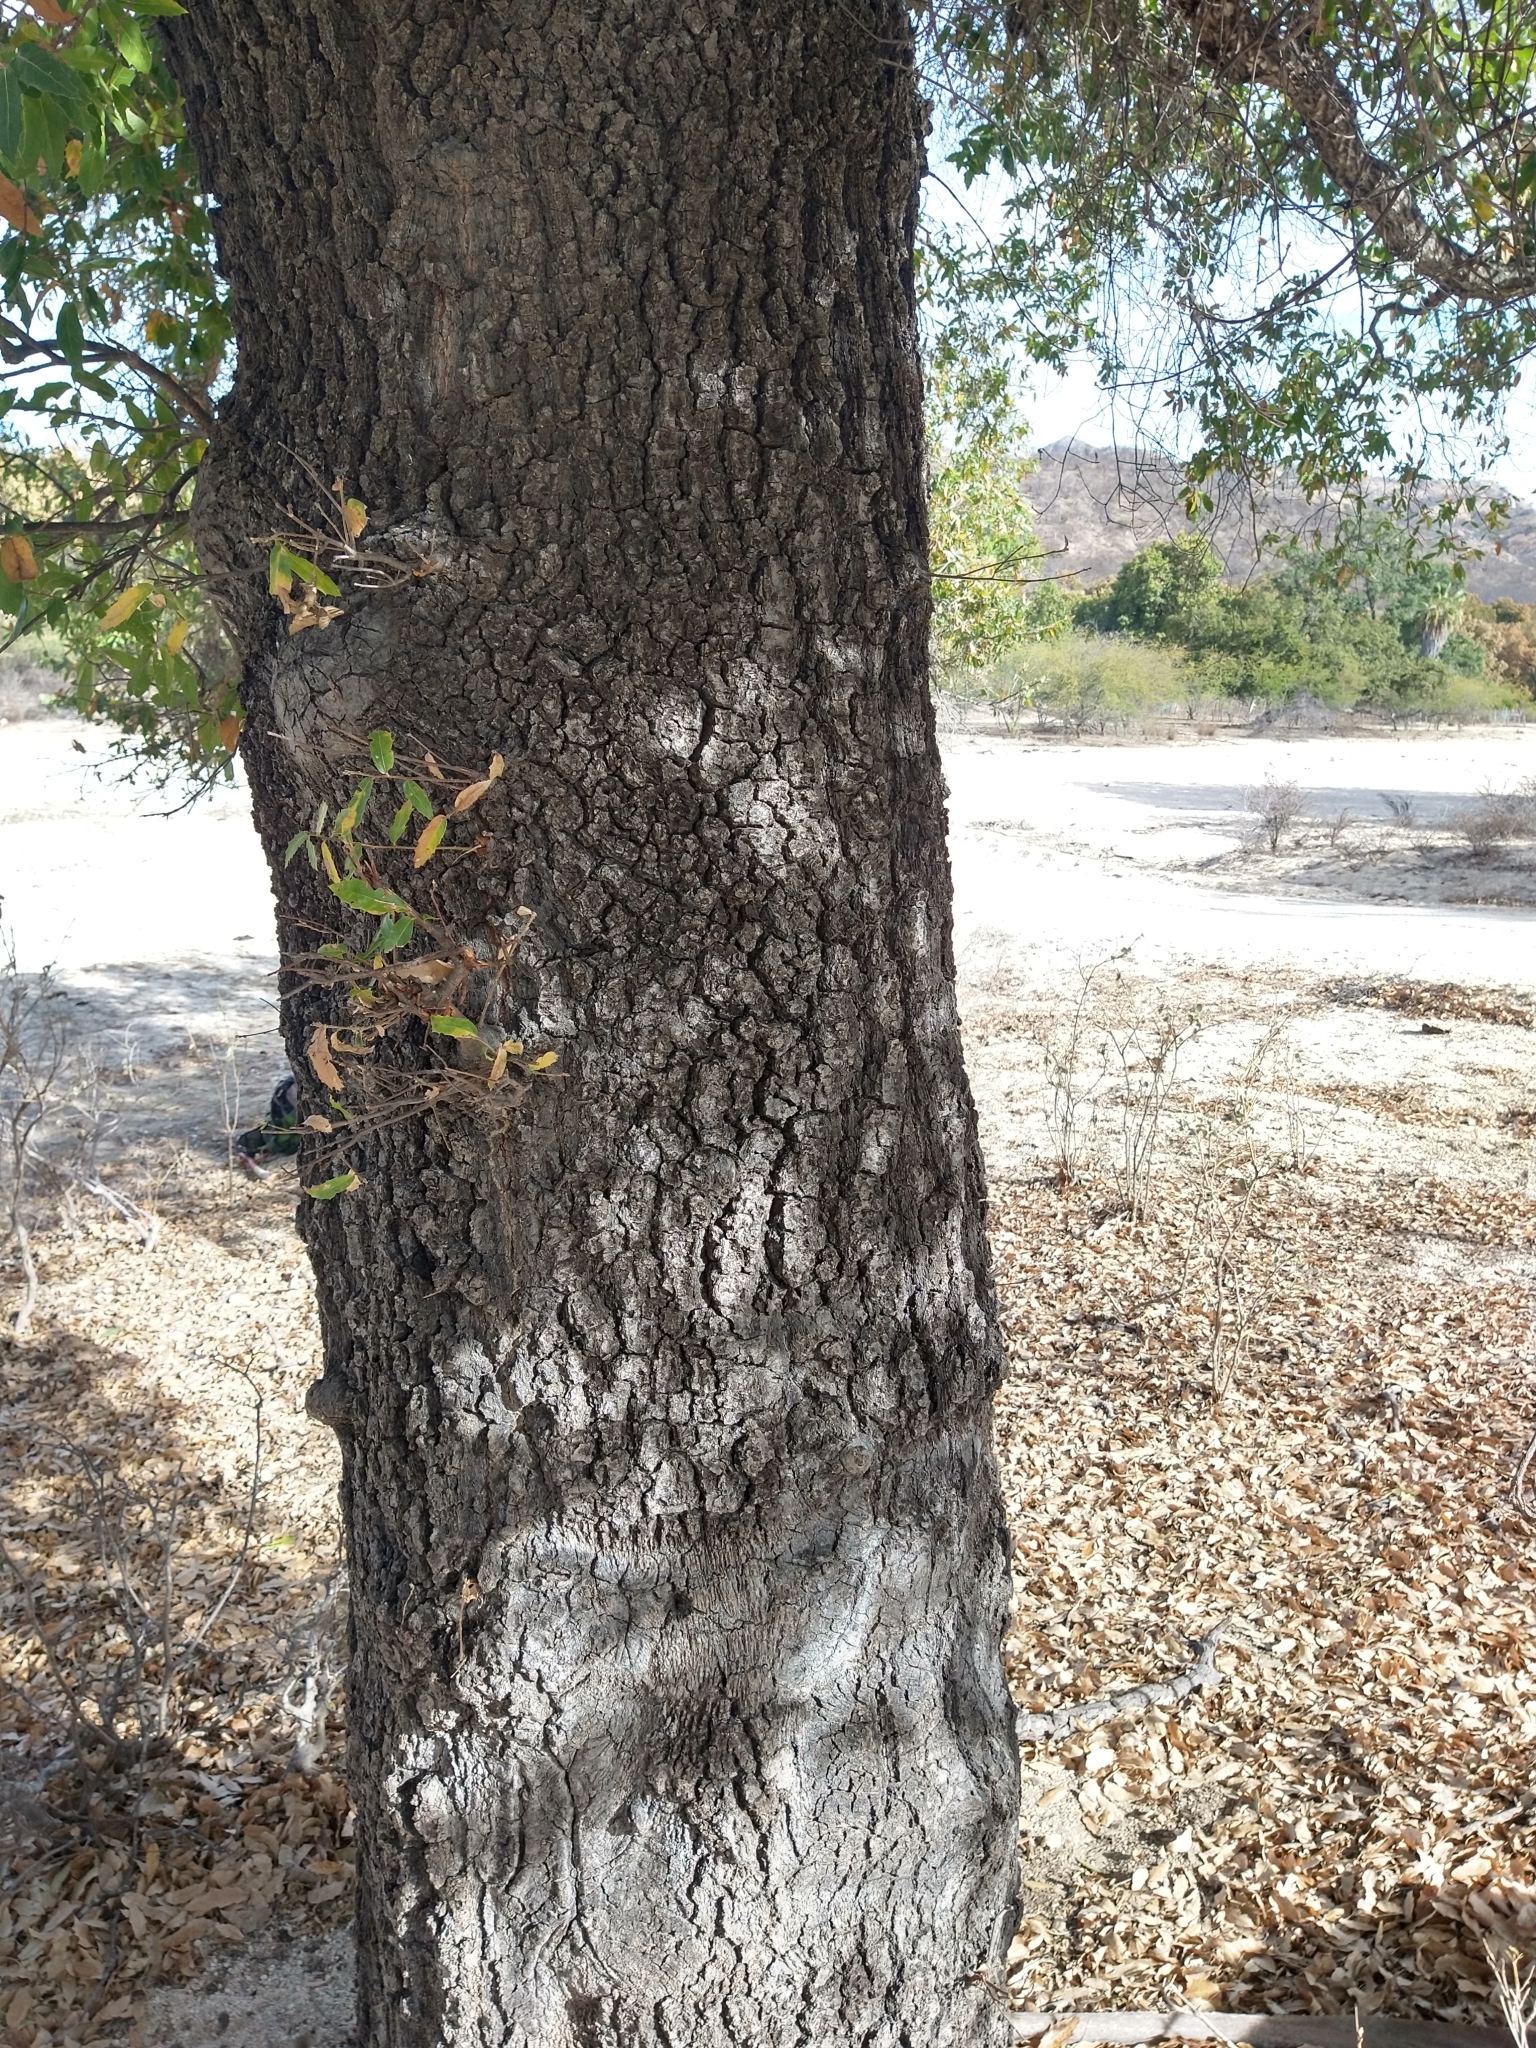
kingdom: Plantae
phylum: Tracheophyta
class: Magnoliopsida
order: Fagales
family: Fagaceae
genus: Quercus
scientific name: Quercus brandegeei
